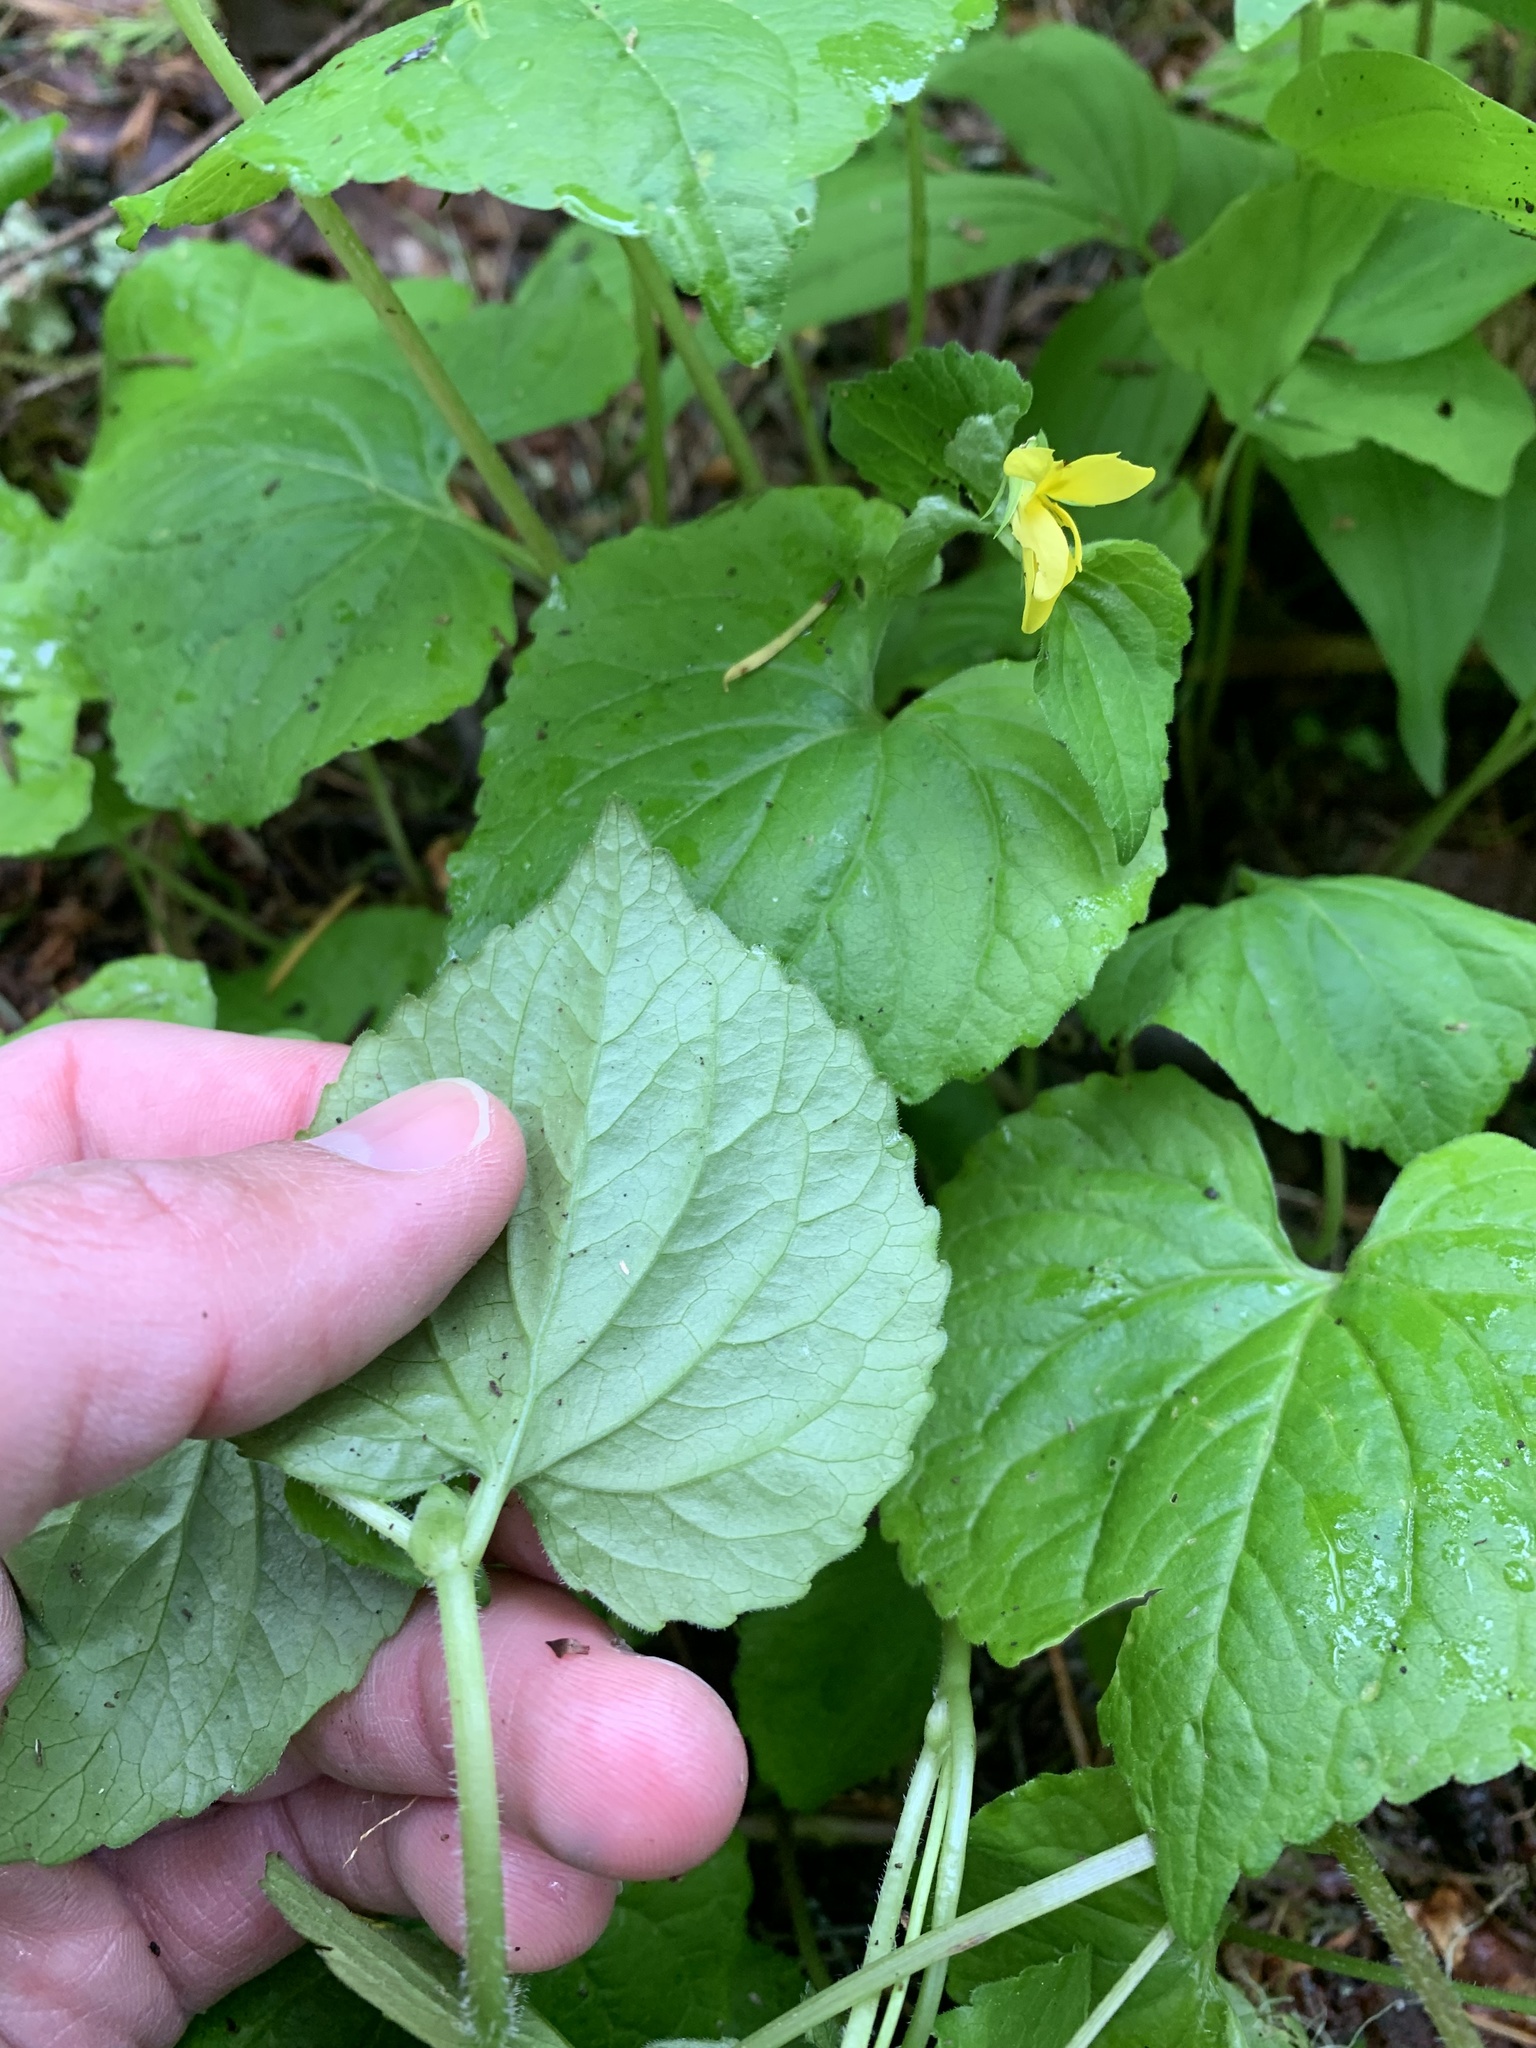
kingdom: Plantae
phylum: Tracheophyta
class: Magnoliopsida
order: Malpighiales
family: Violaceae
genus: Viola
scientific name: Viola glabella
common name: Stream violet
